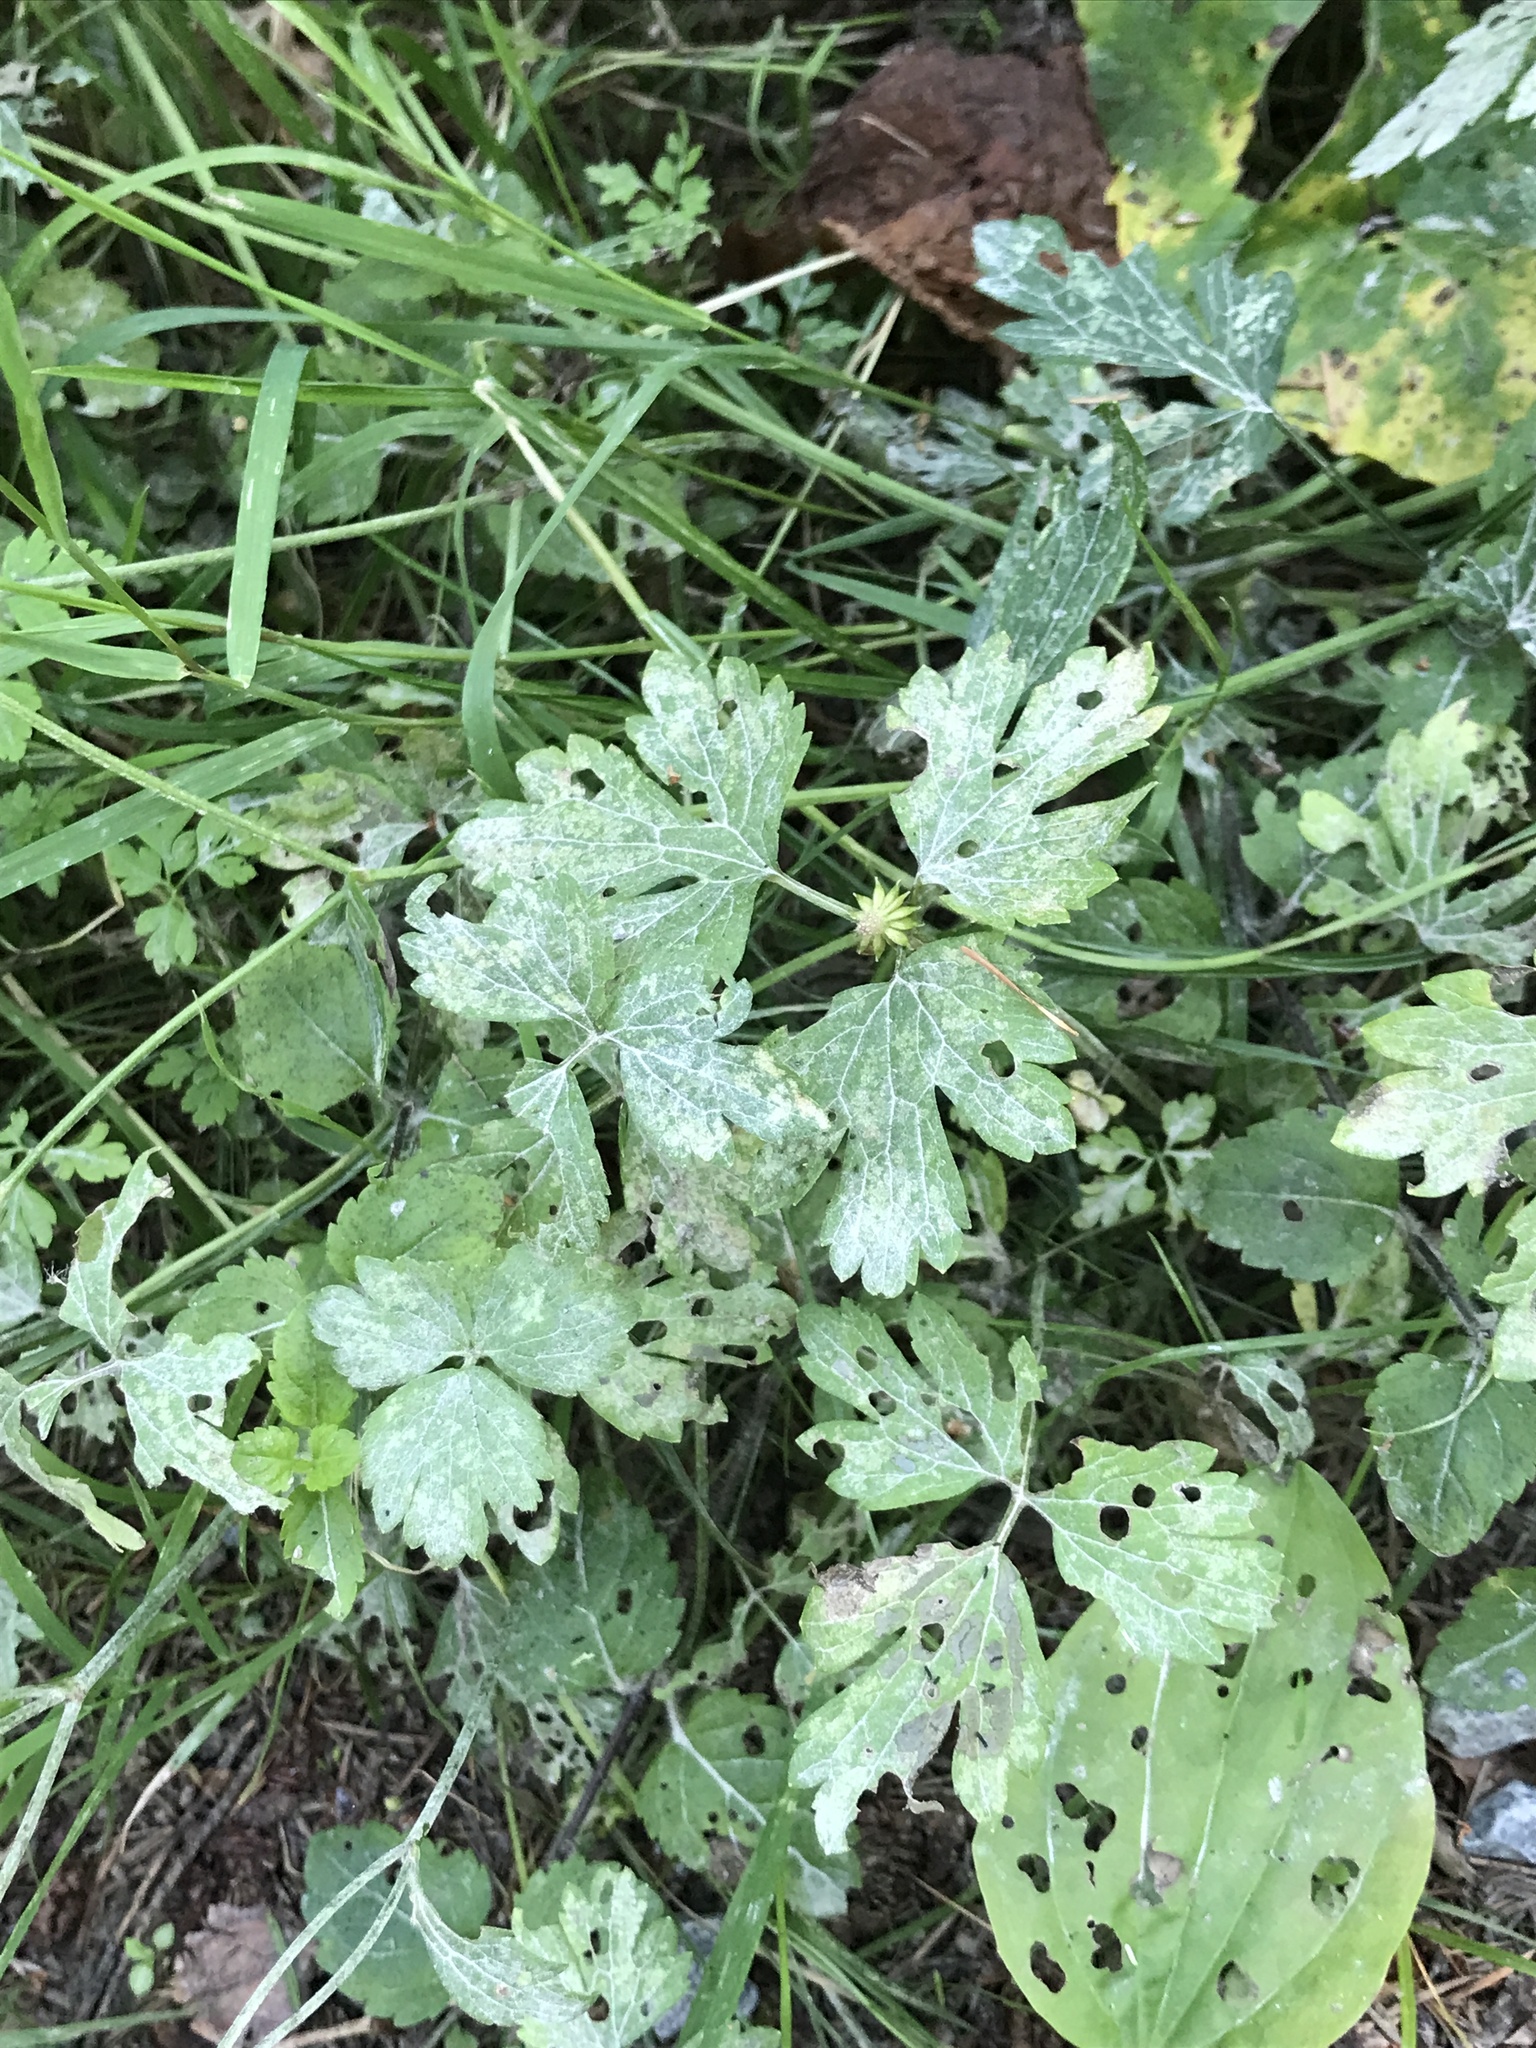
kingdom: Plantae
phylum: Tracheophyta
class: Magnoliopsida
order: Ranunculales
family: Ranunculaceae
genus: Ranunculus
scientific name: Ranunculus repens
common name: Creeping buttercup
